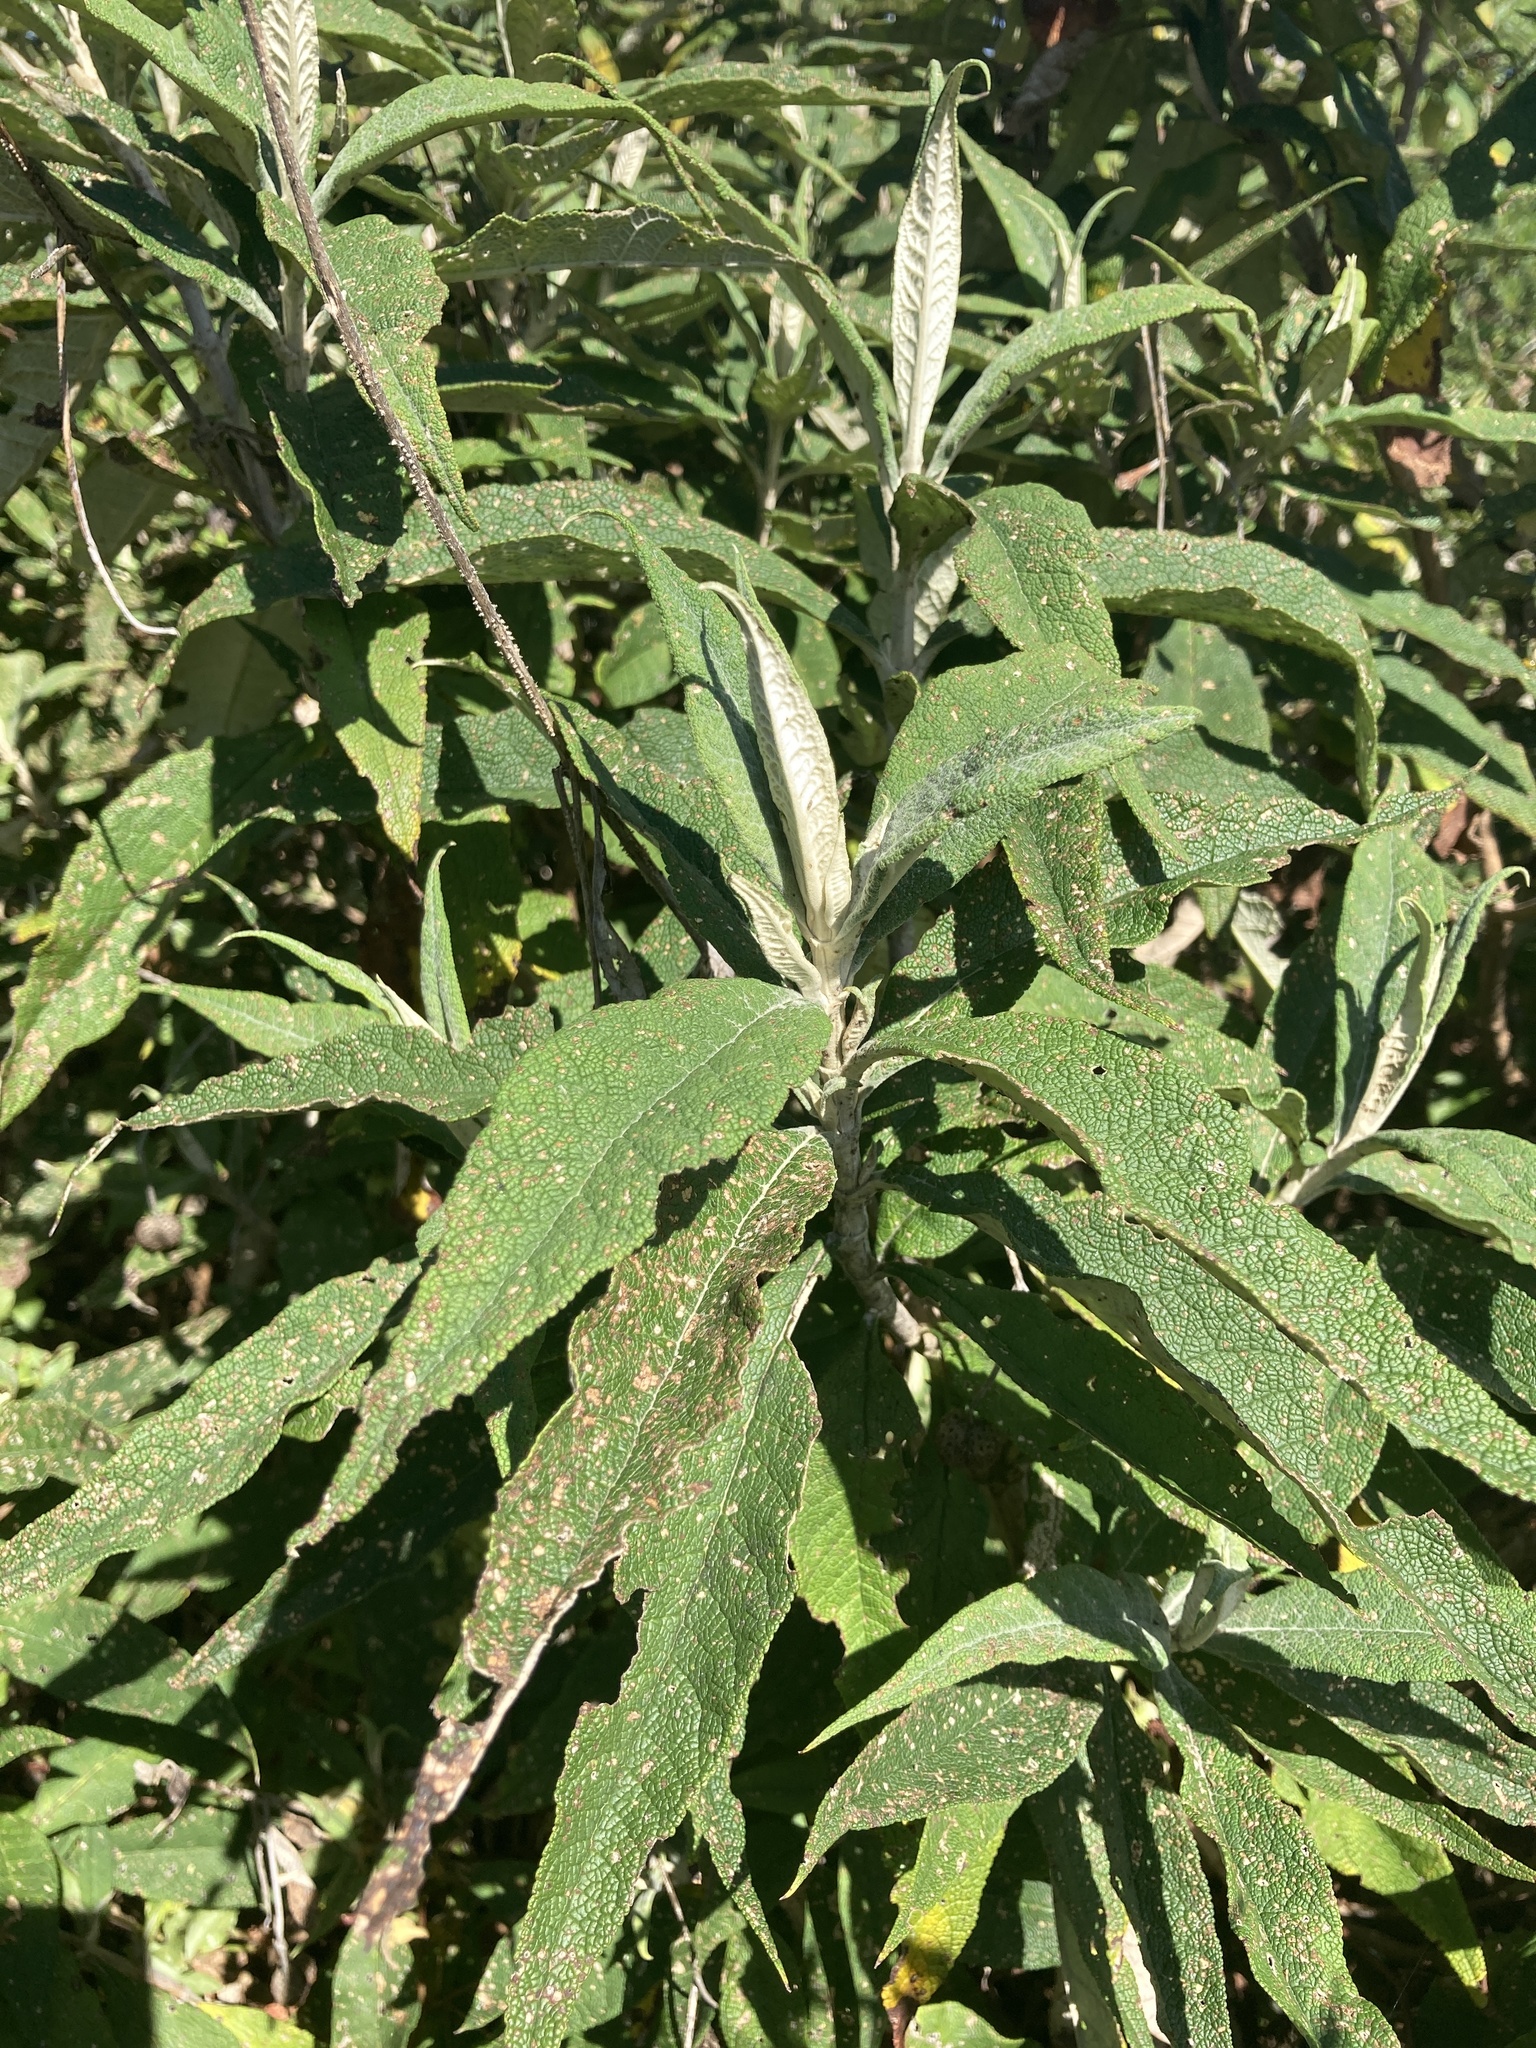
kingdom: Plantae
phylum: Tracheophyta
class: Magnoliopsida
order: Lamiales
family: Scrophulariaceae
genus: Buddleja
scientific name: Buddleja davidii
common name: Butterfly-bush
